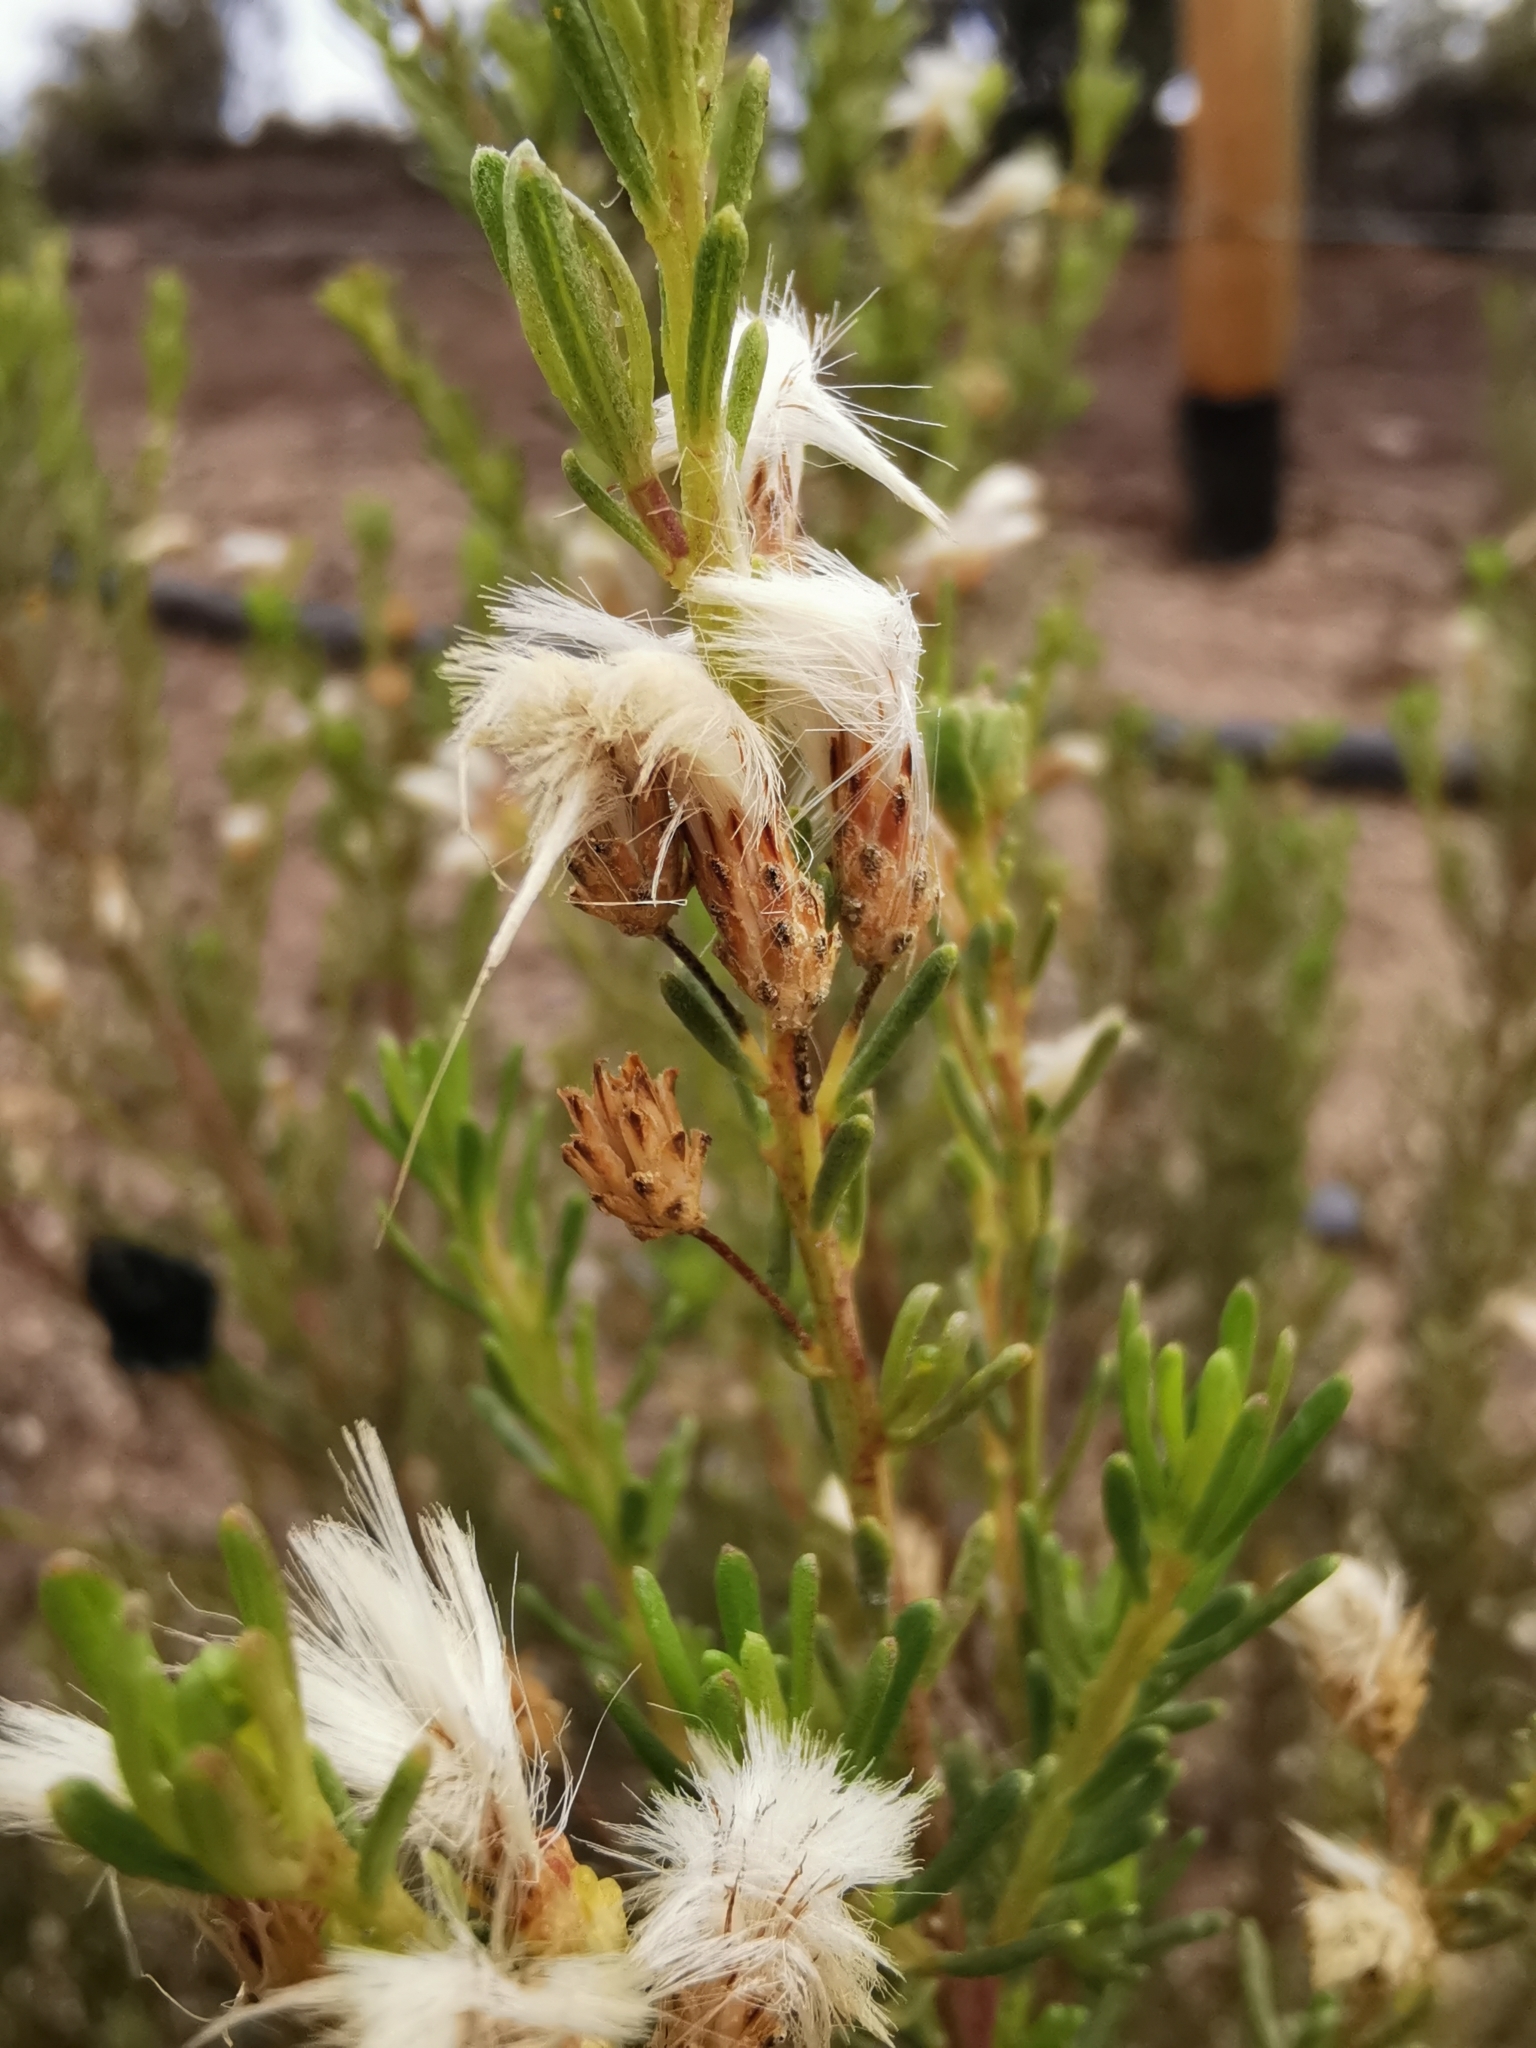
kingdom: Plantae
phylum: Tracheophyta
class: Magnoliopsida
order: Asterales
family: Asteraceae
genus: Baccharis
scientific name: Baccharis linearis
